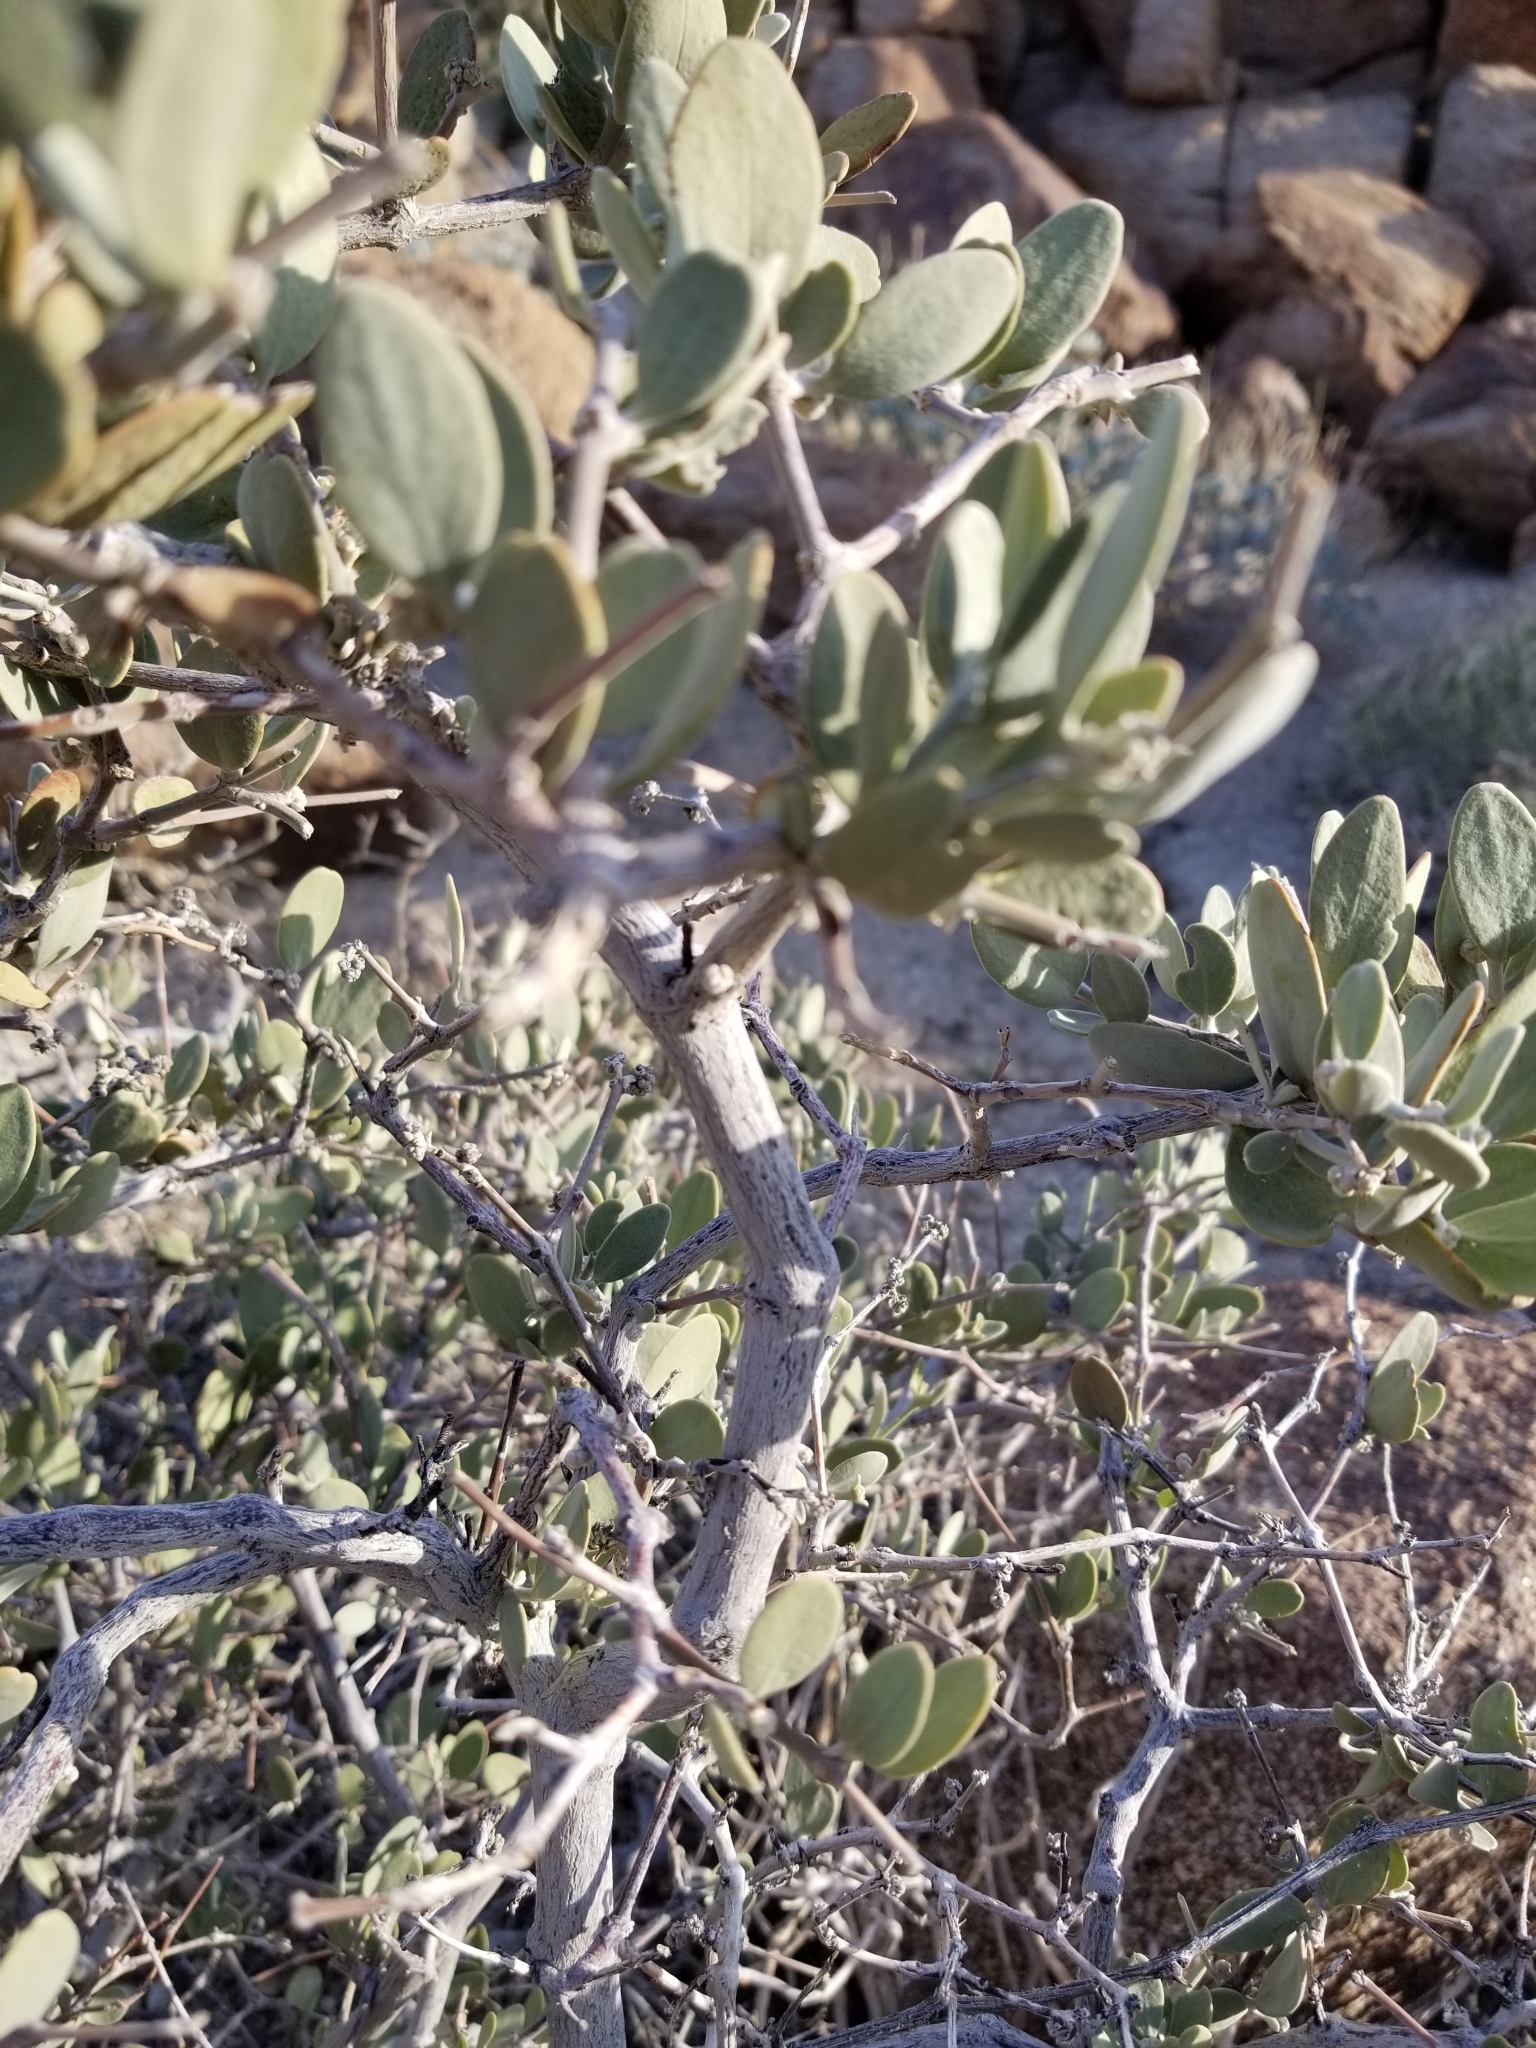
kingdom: Plantae
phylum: Tracheophyta
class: Magnoliopsida
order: Caryophyllales
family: Simmondsiaceae
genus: Simmondsia
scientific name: Simmondsia chinensis
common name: Jojoba
